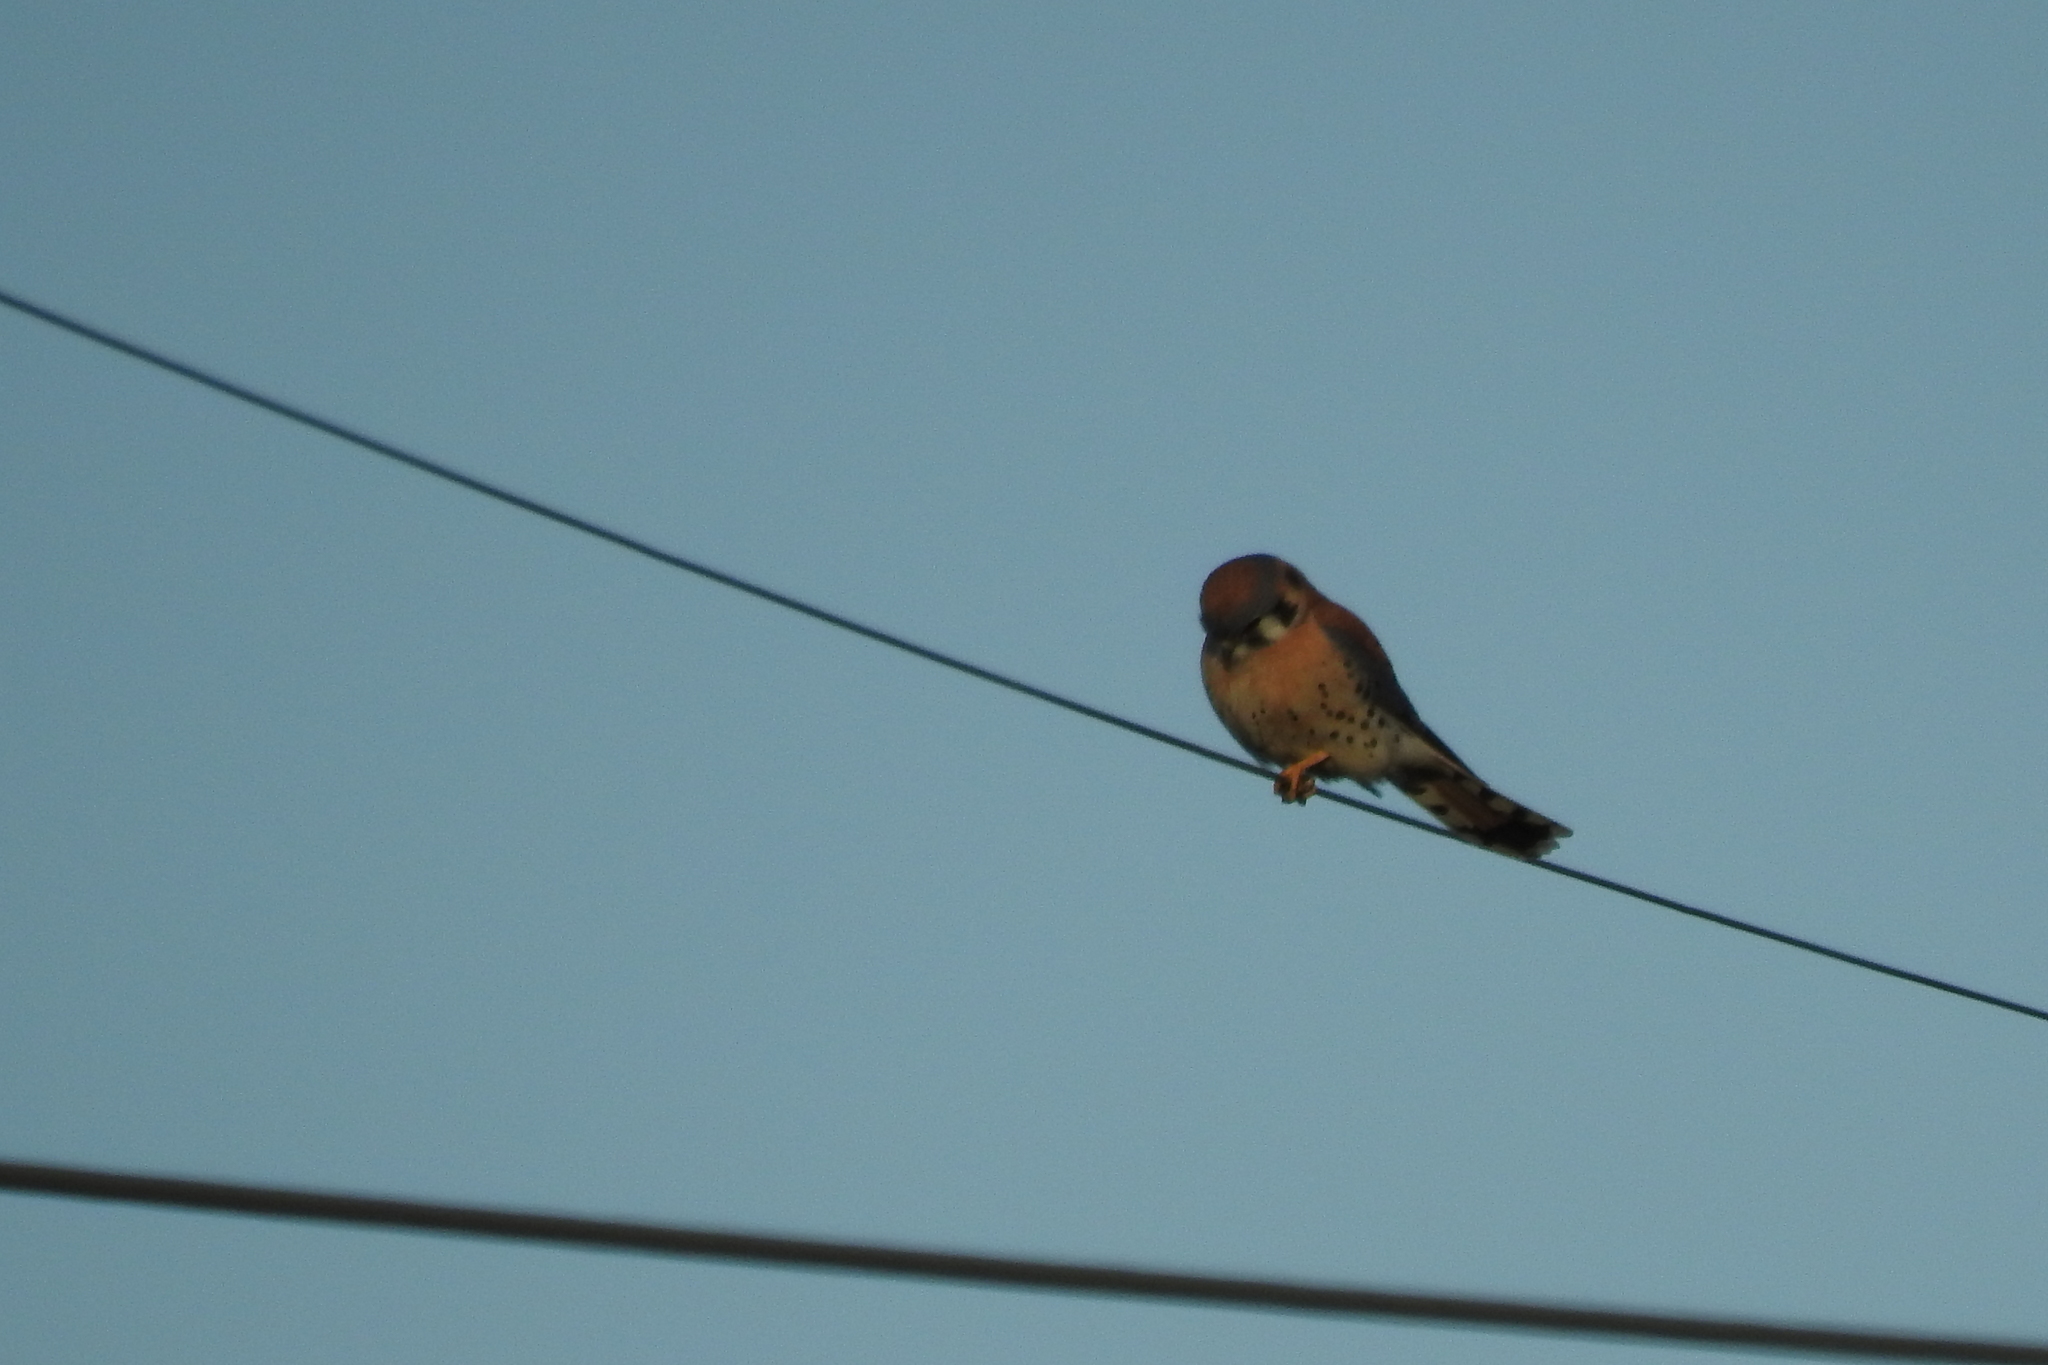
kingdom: Animalia
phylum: Chordata
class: Aves
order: Falconiformes
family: Falconidae
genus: Falco
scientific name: Falco sparverius
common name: American kestrel
